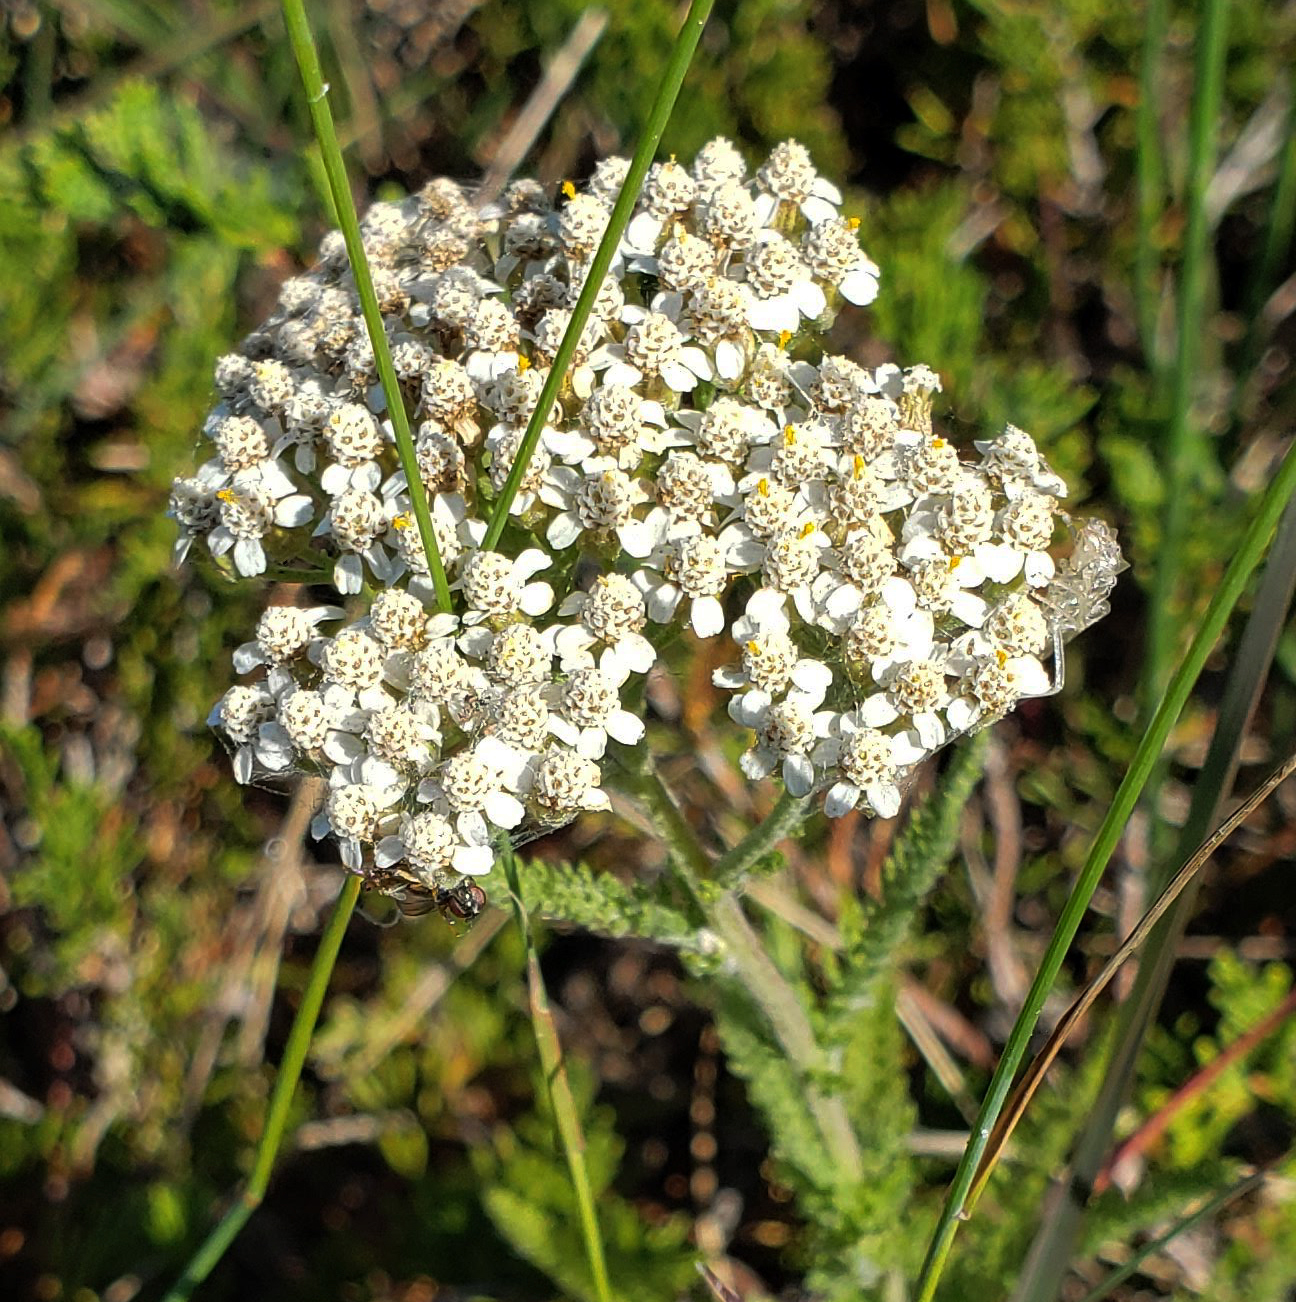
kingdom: Plantae
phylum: Tracheophyta
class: Magnoliopsida
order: Asterales
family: Asteraceae
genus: Achillea
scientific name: Achillea millefolium
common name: Yarrow
